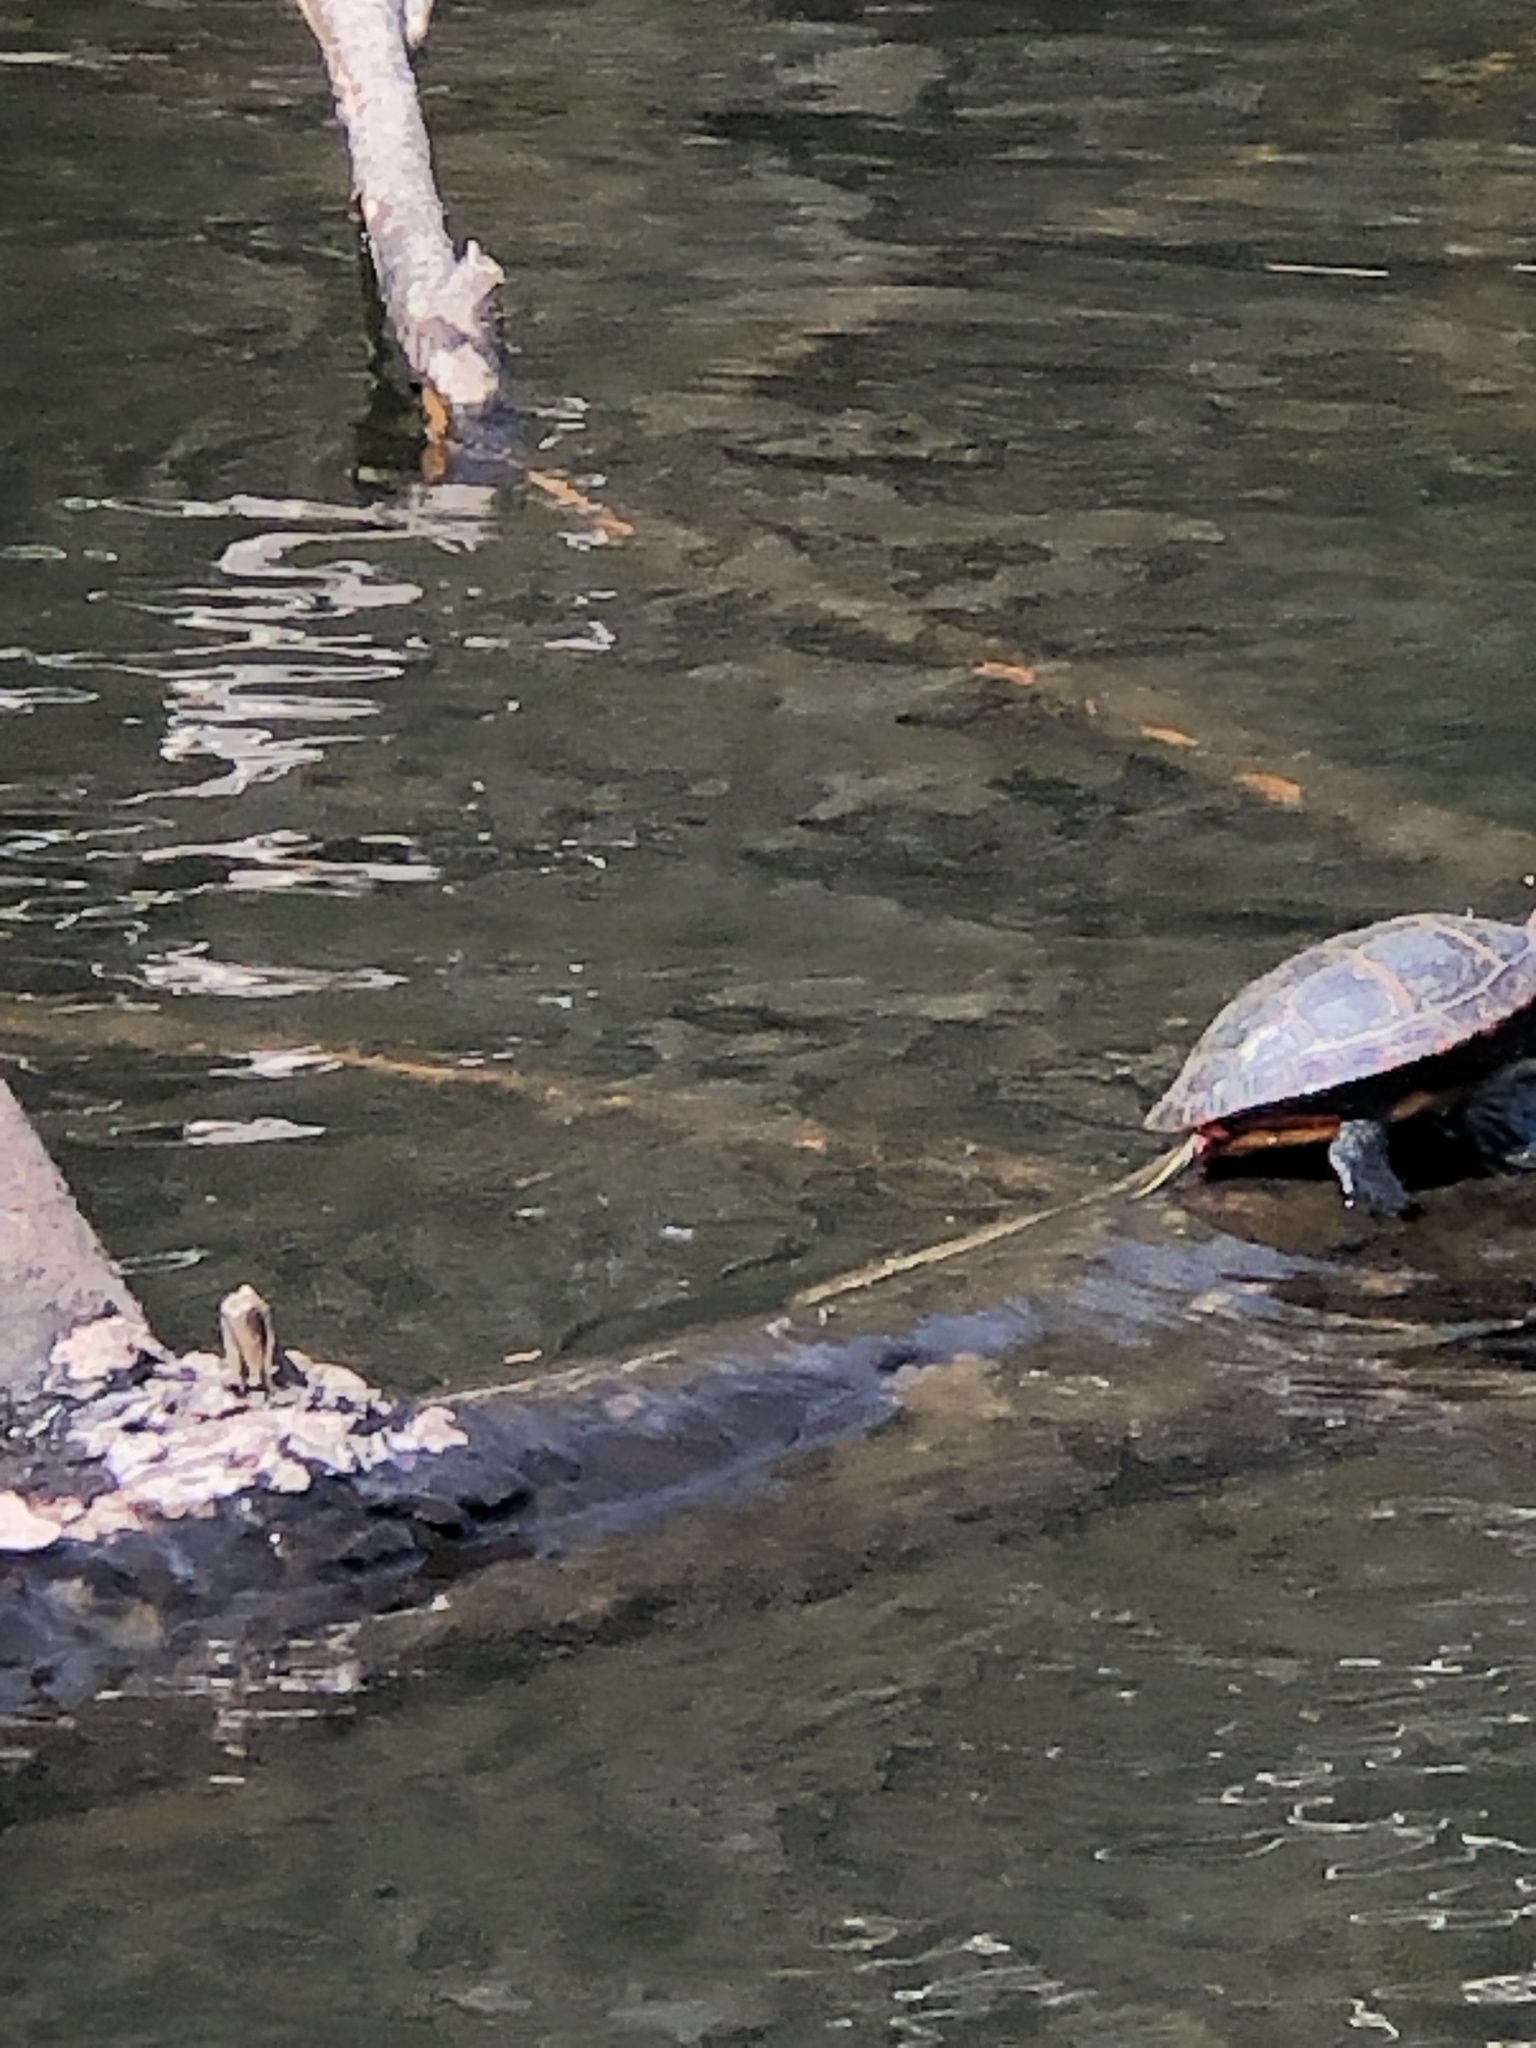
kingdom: Animalia
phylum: Chordata
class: Testudines
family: Emydidae
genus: Chrysemys
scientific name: Chrysemys picta
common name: Painted turtle
